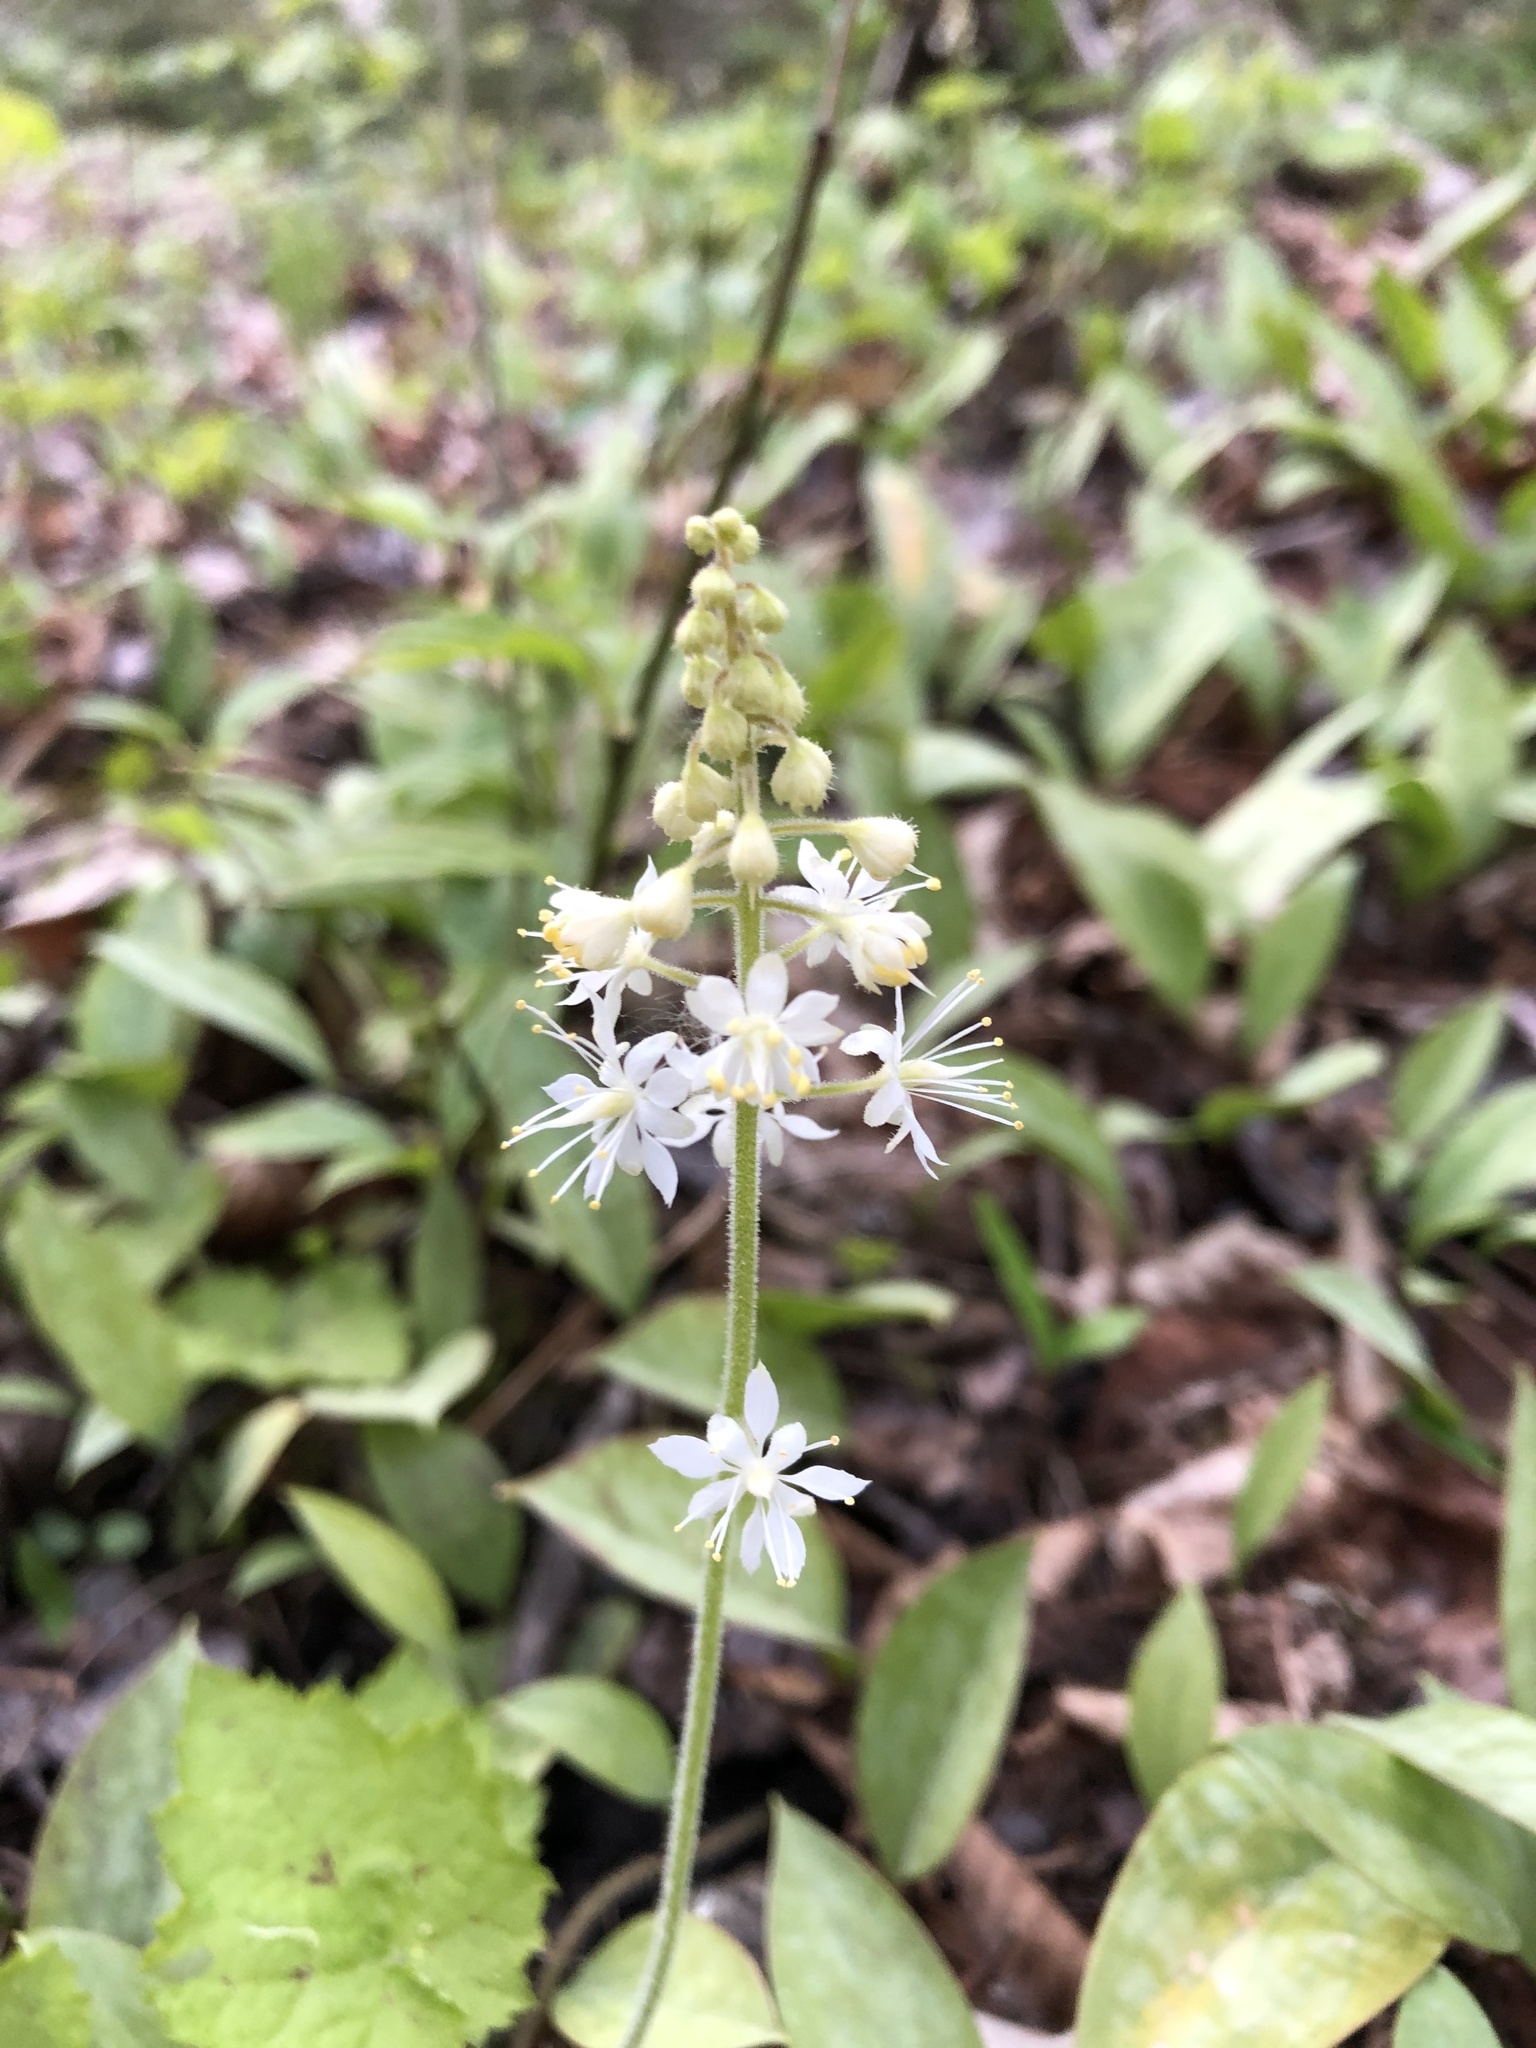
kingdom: Plantae
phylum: Tracheophyta
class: Magnoliopsida
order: Saxifragales
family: Saxifragaceae
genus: Tiarella
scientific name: Tiarella stolonifera
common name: Stoloniferous foamflower
